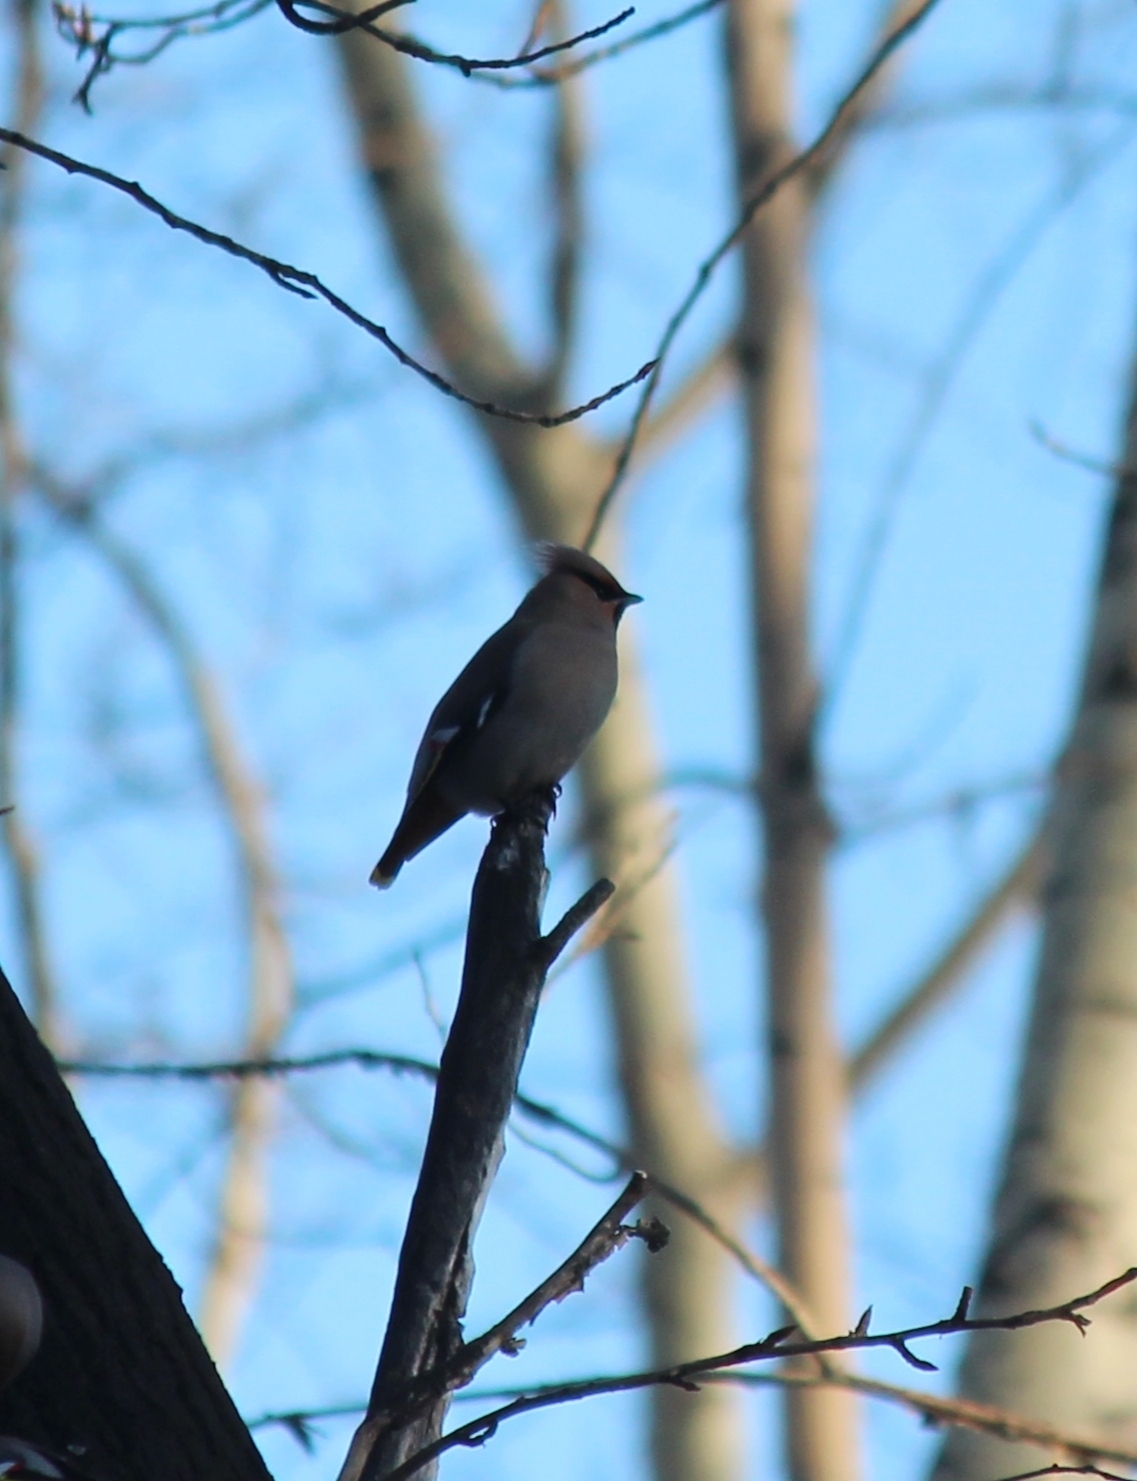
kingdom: Animalia
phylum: Chordata
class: Aves
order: Passeriformes
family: Bombycillidae
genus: Bombycilla
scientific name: Bombycilla garrulus
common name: Bohemian waxwing
